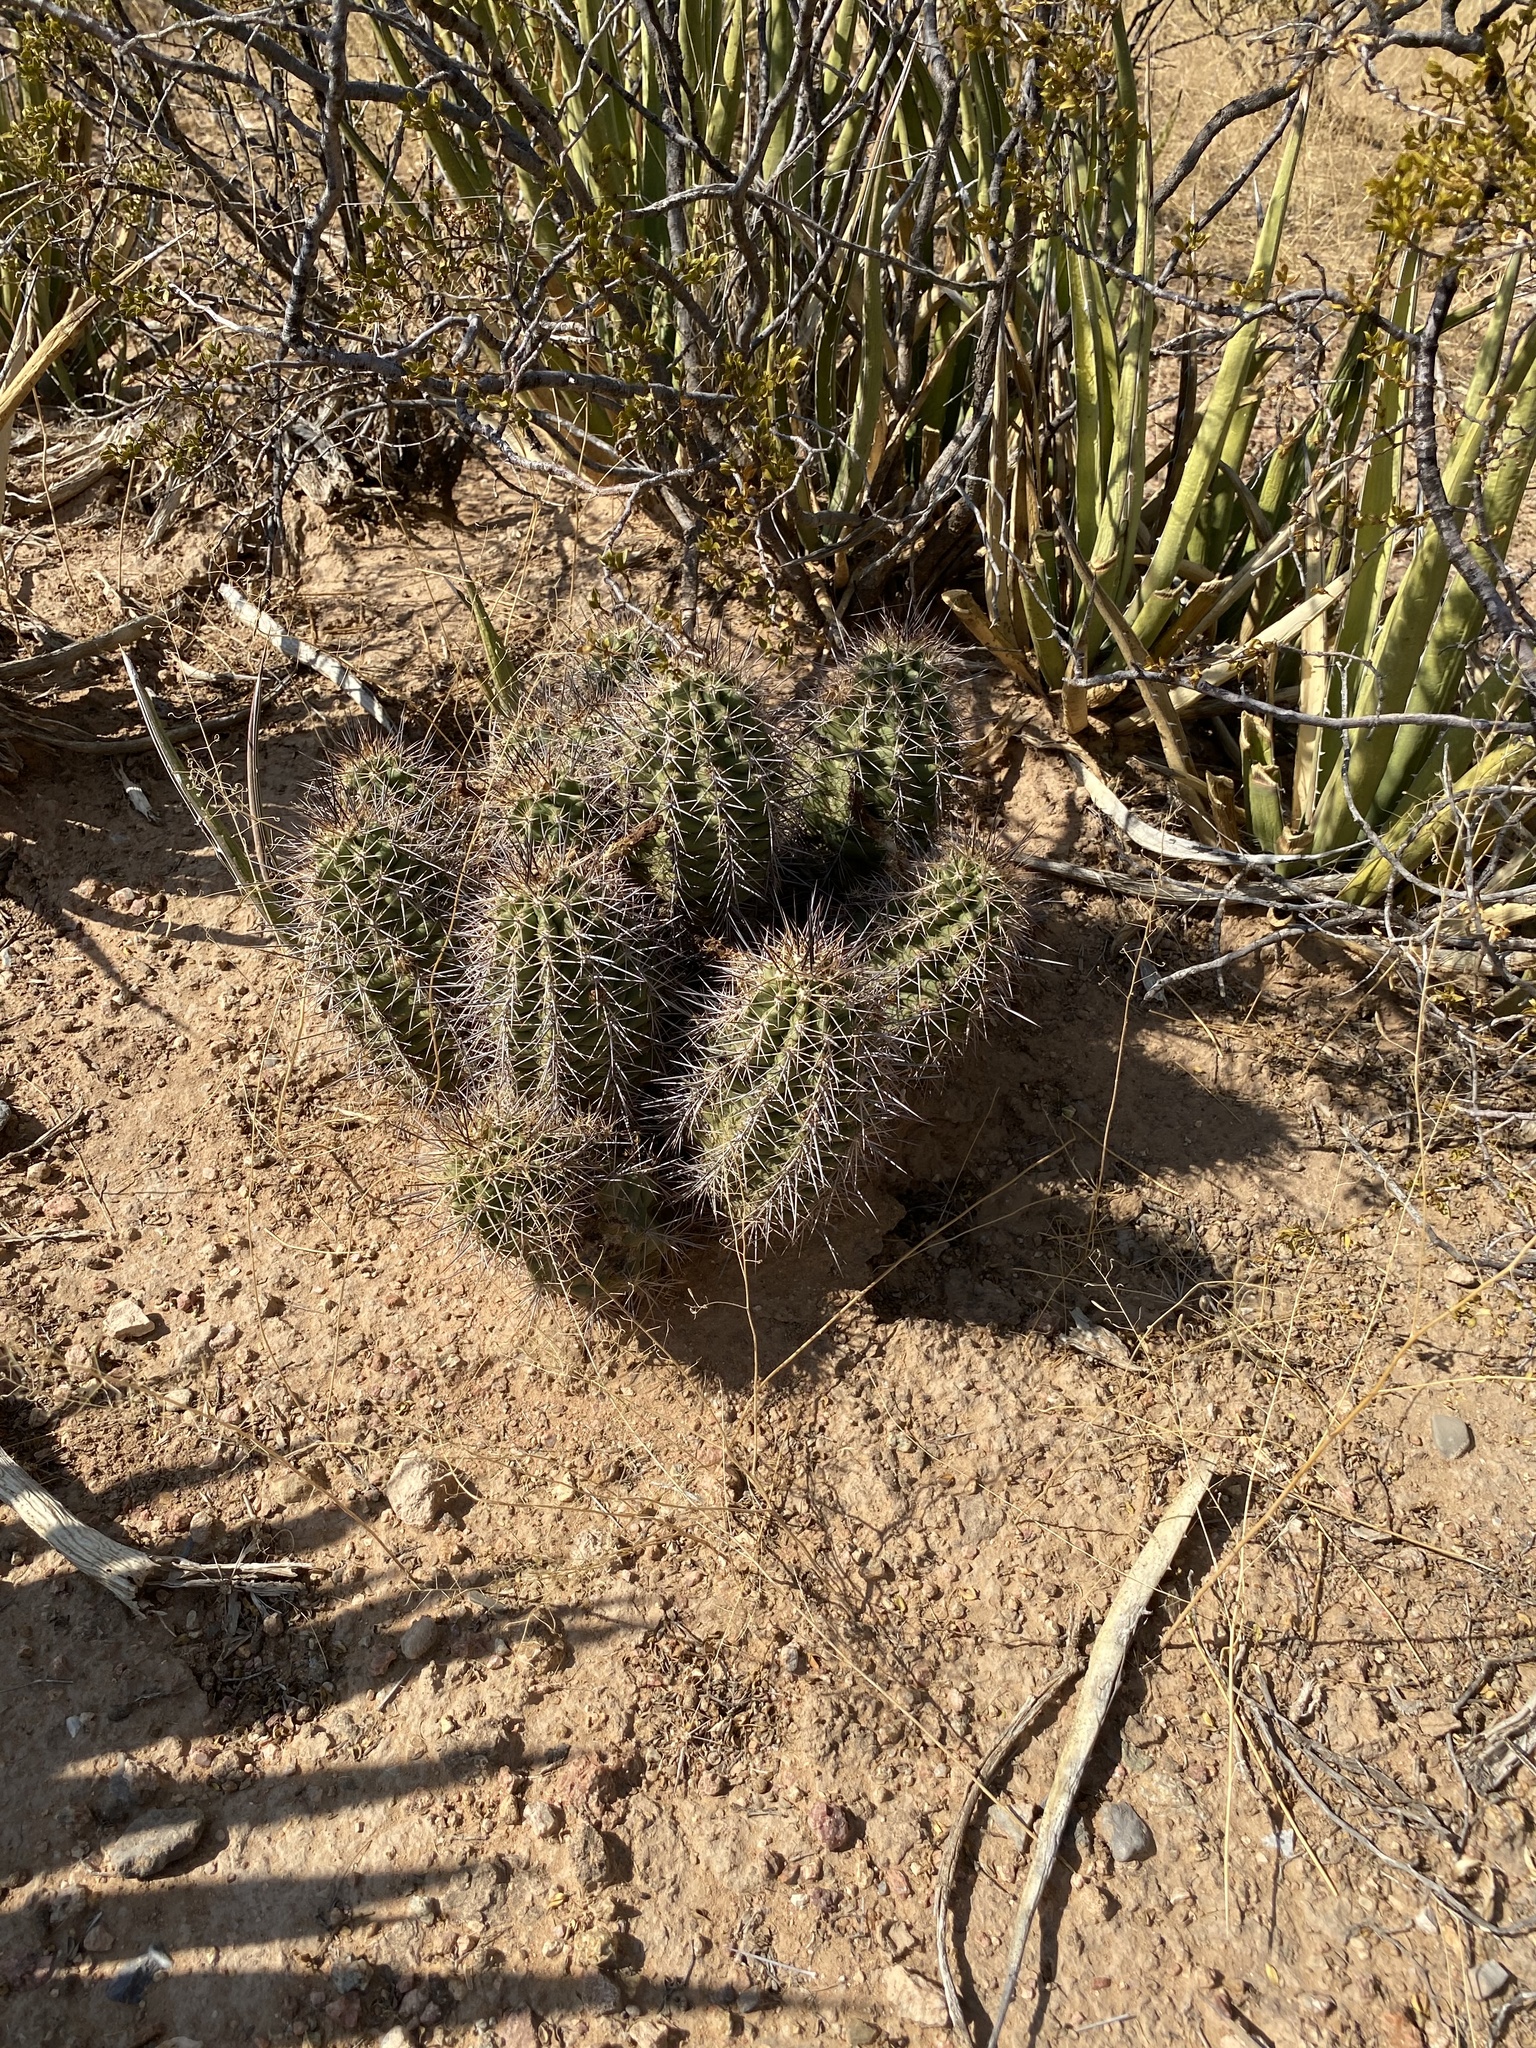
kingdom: Plantae
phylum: Tracheophyta
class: Magnoliopsida
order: Caryophyllales
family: Cactaceae
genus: Echinocereus
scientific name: Echinocereus coccineus
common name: Scarlet hedgehog cactus
